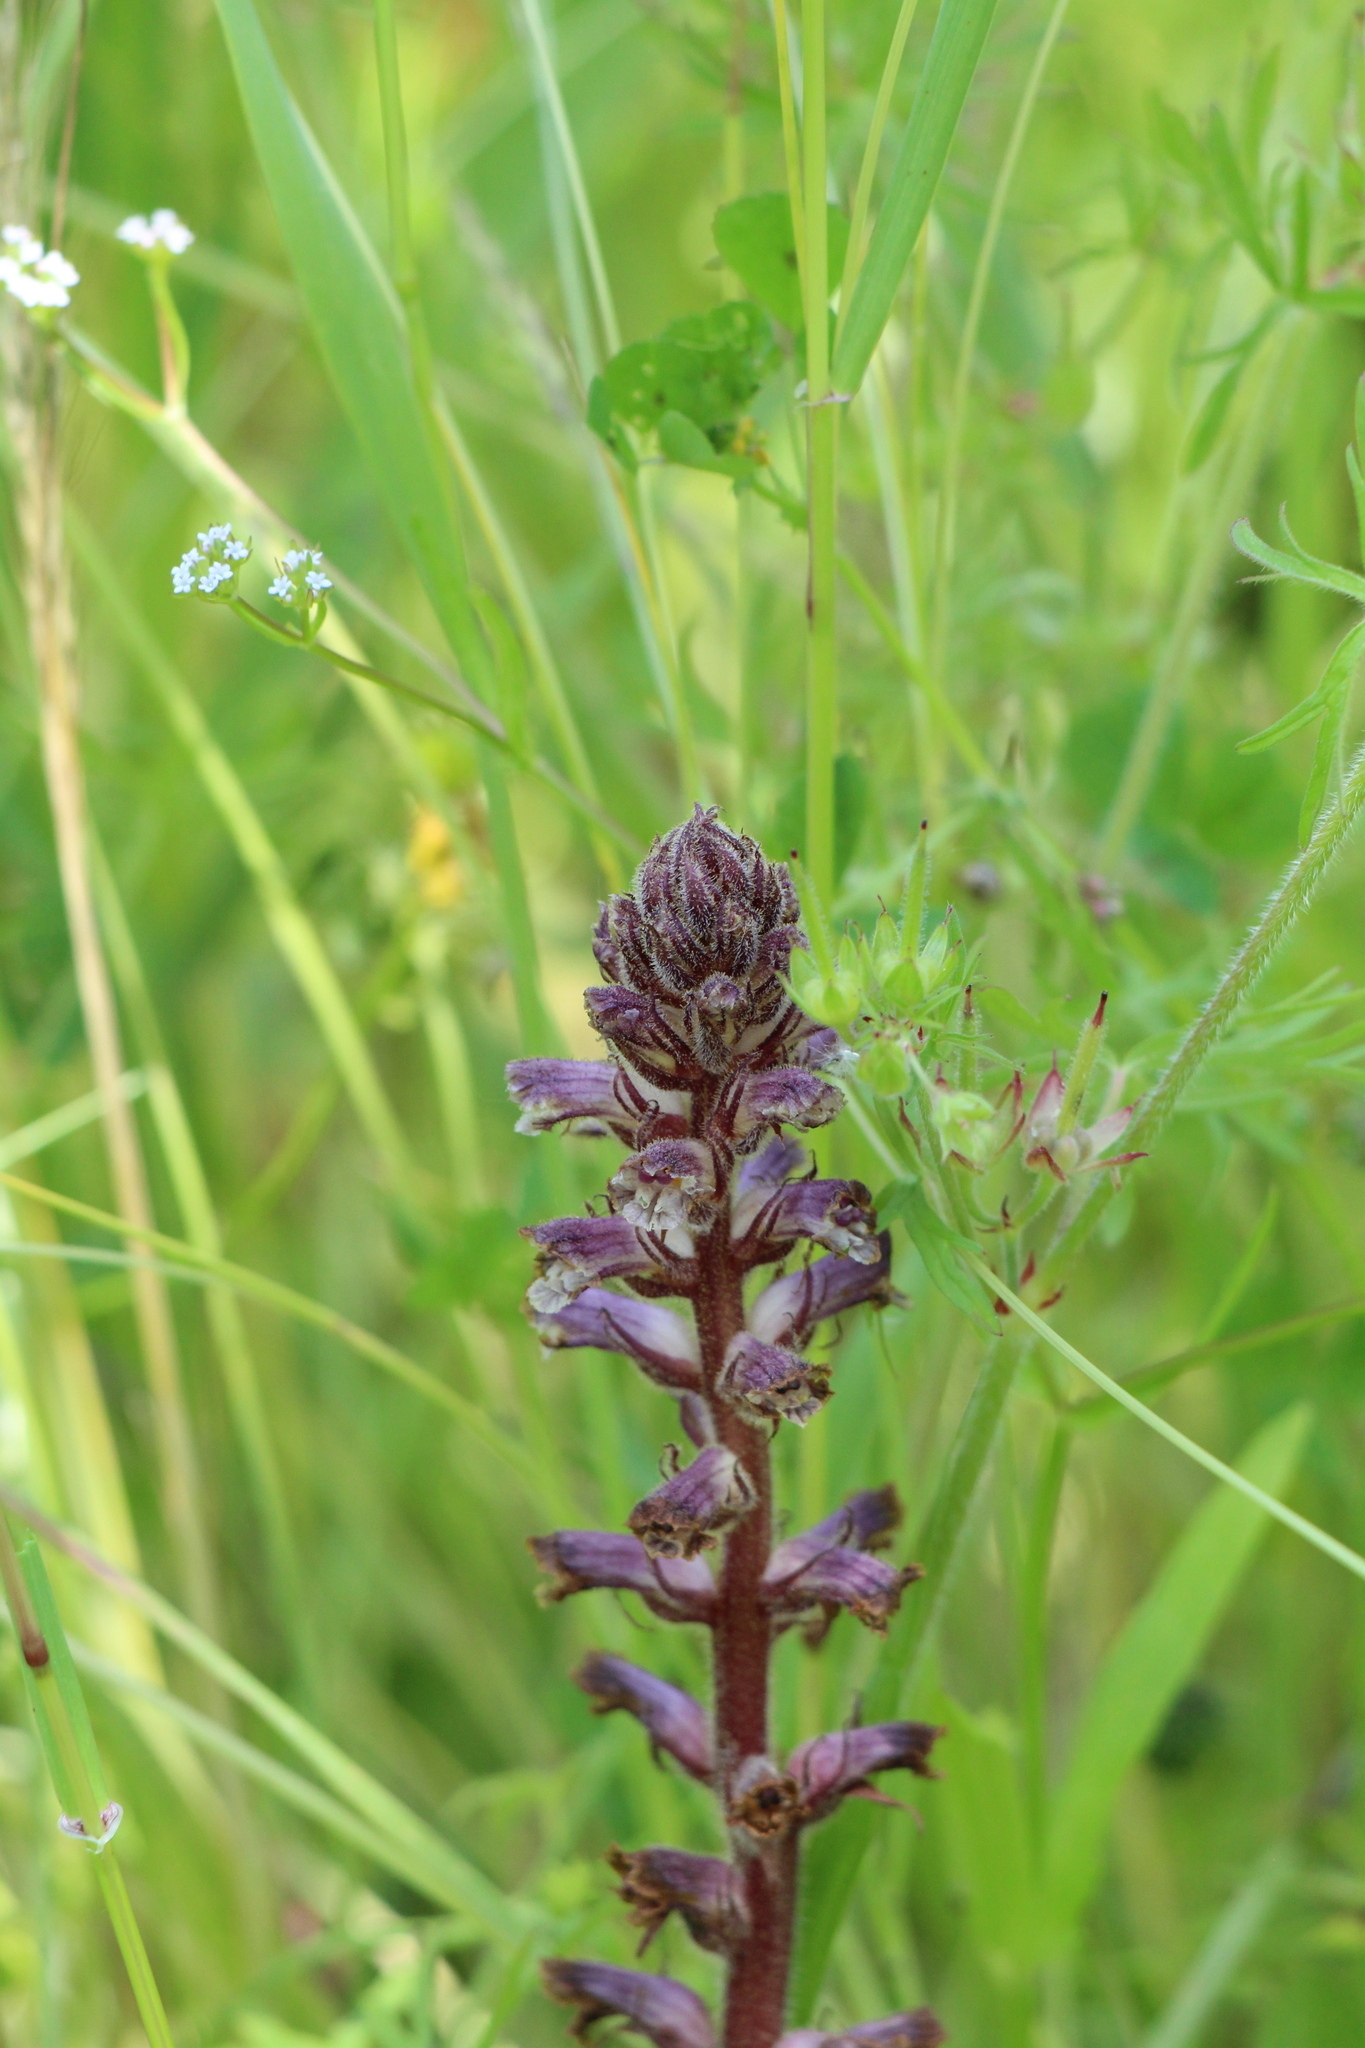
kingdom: Plantae
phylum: Tracheophyta
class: Magnoliopsida
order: Lamiales
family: Orobanchaceae
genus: Orobanche
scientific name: Orobanche minor
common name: Common broomrape
